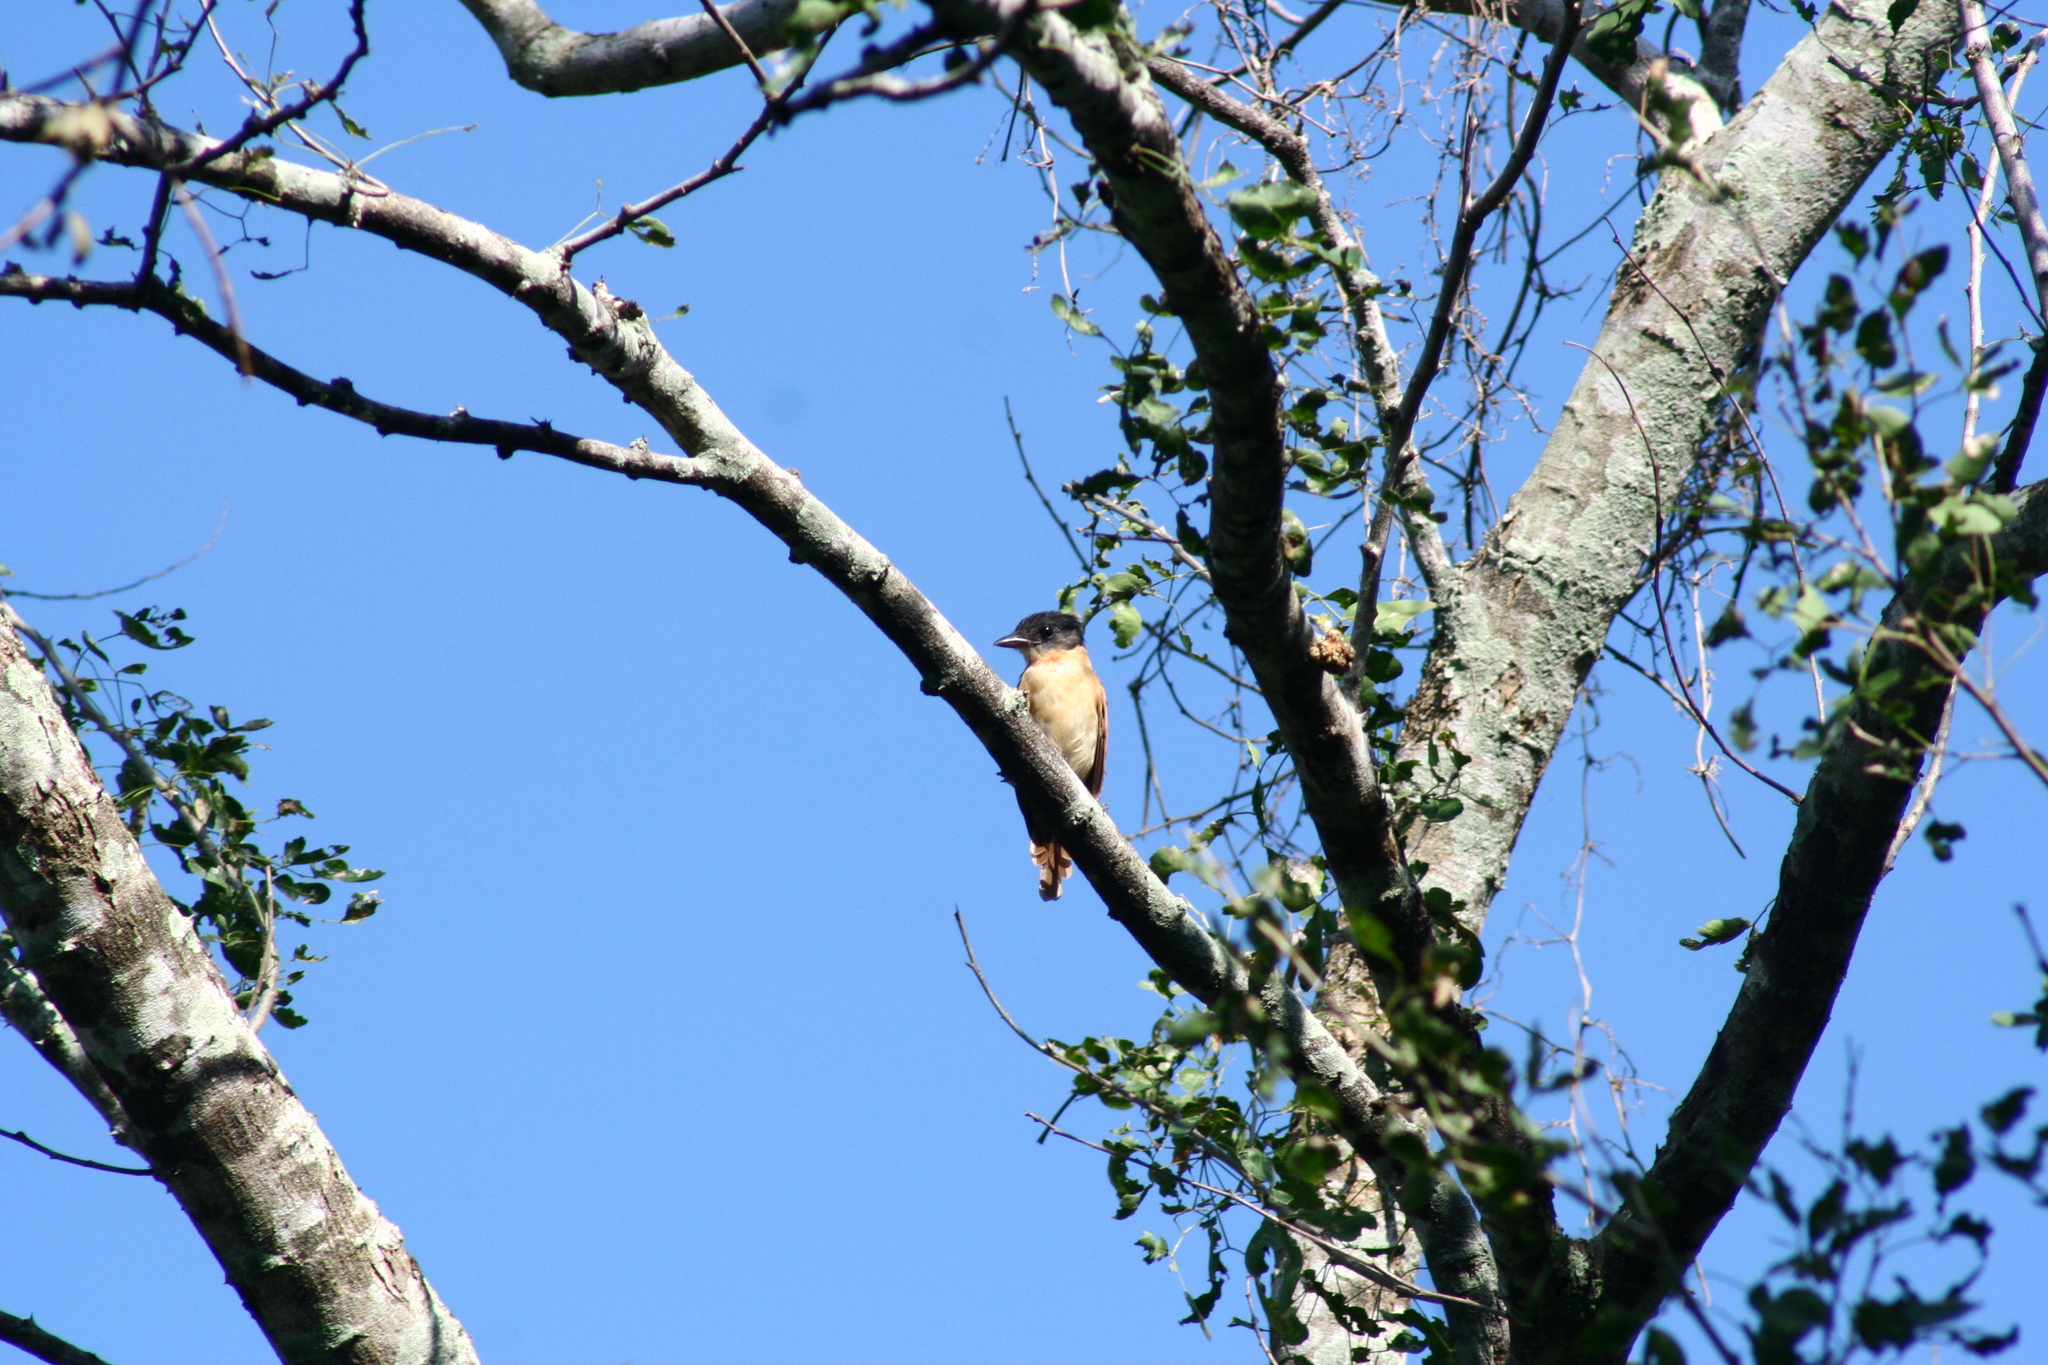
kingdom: Animalia
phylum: Chordata
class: Aves
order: Passeriformes
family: Cotingidae
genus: Pachyramphus
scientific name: Pachyramphus aglaiae
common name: Rose-throated becard
